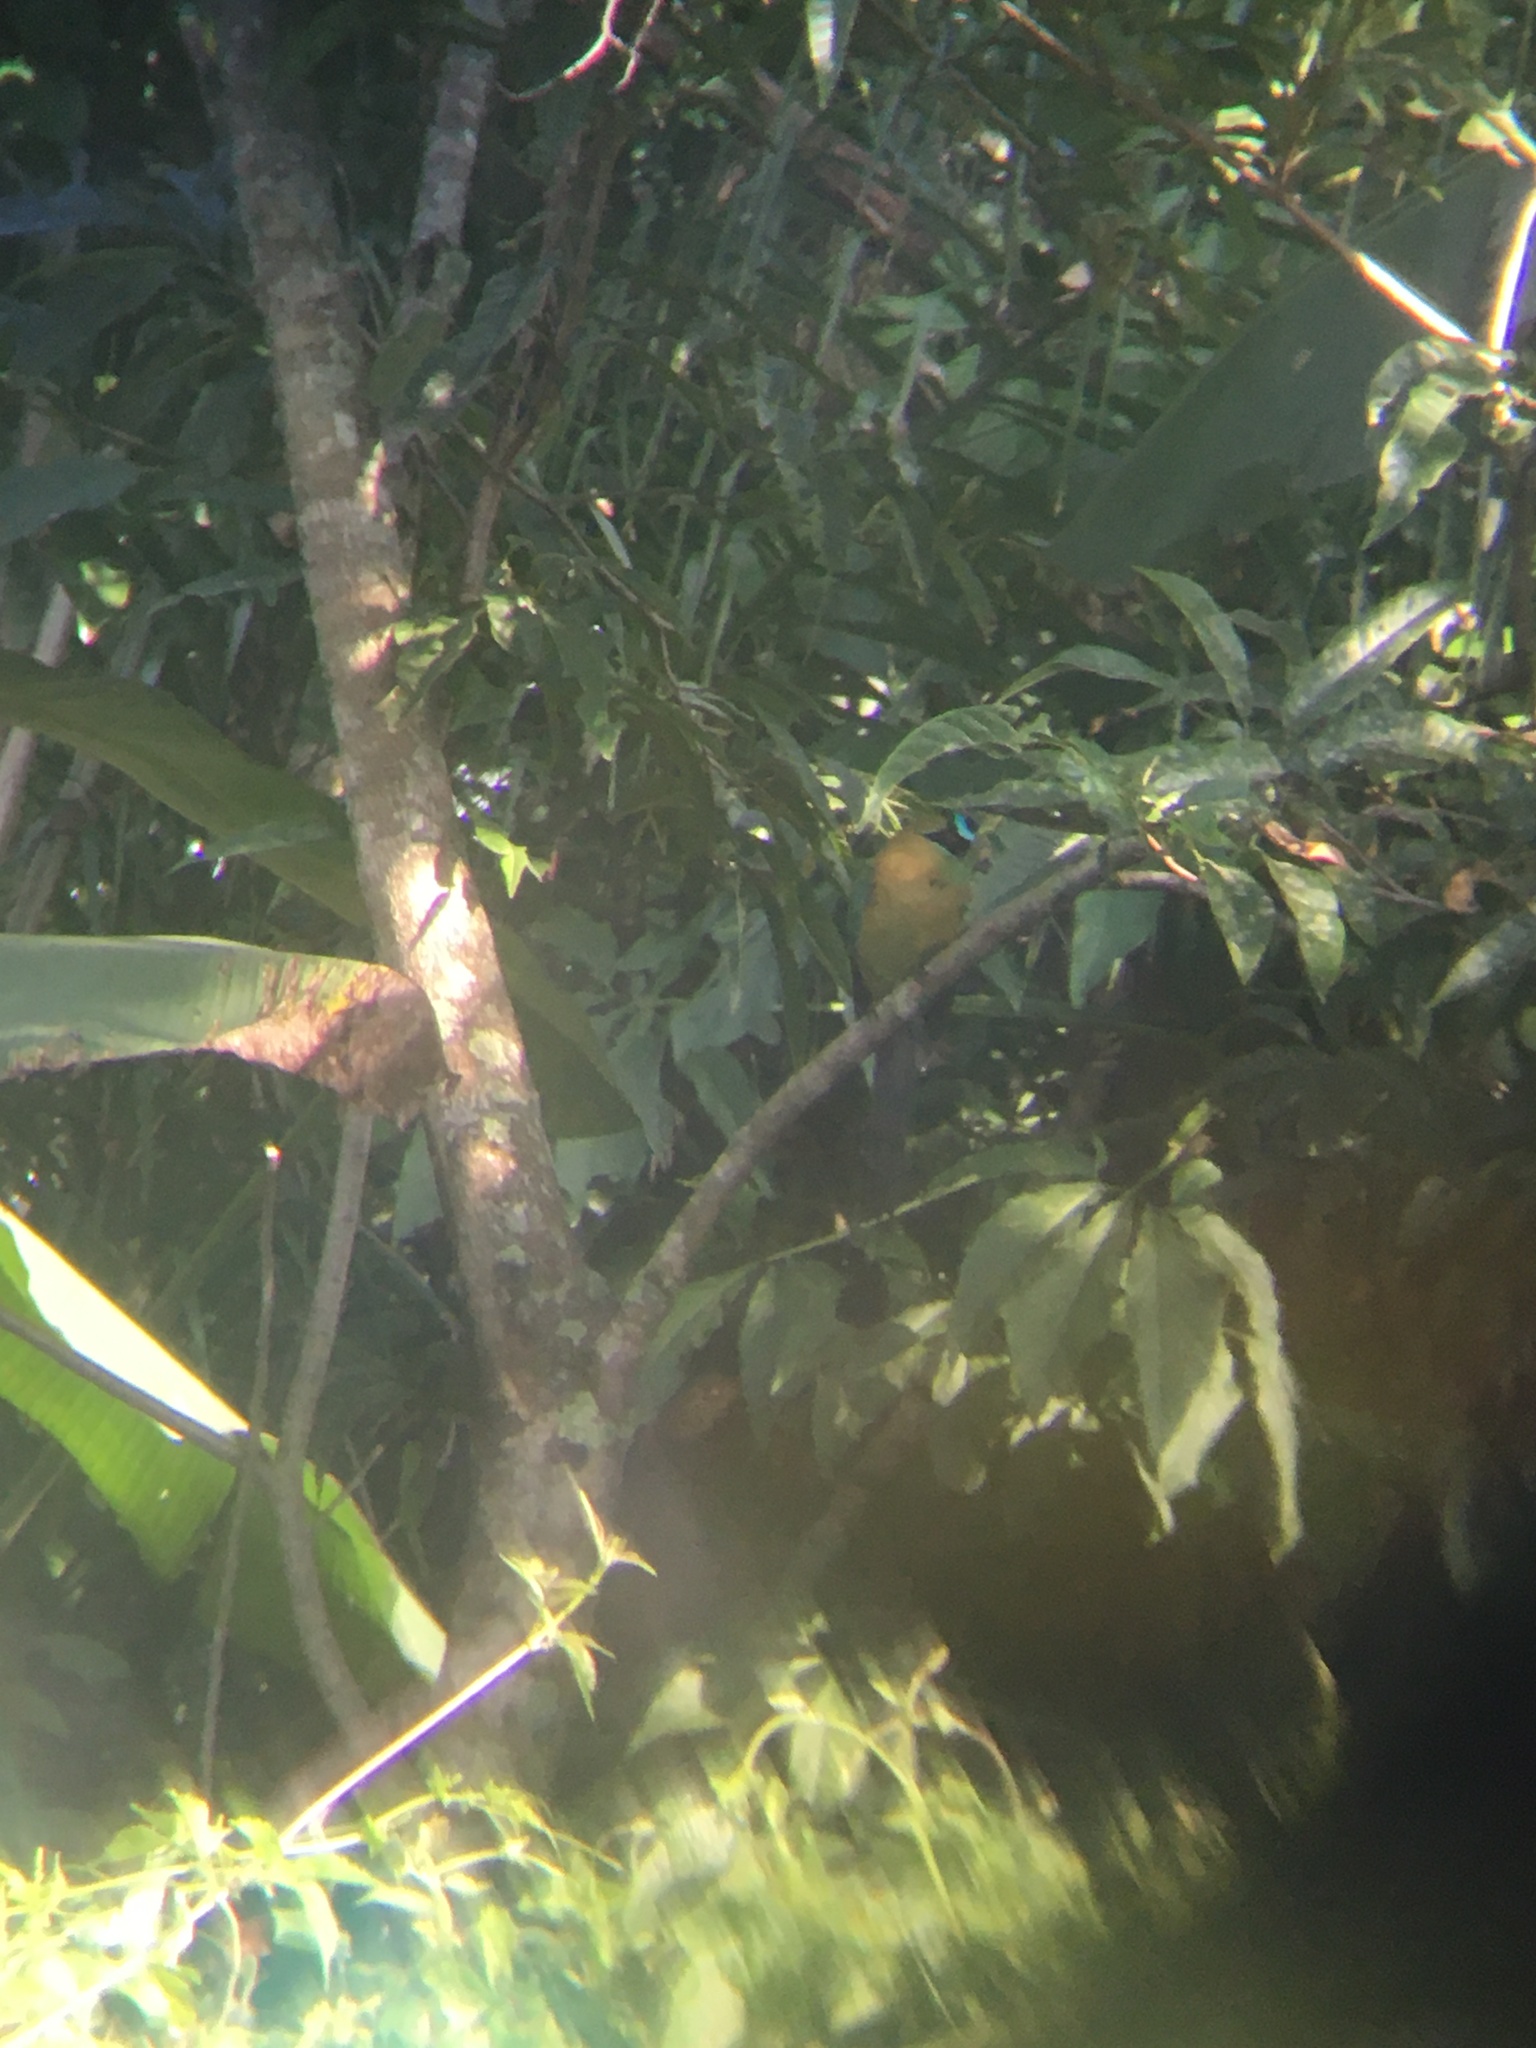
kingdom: Animalia
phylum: Chordata
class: Aves
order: Coraciiformes
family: Momotidae
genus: Momotus
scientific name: Momotus lessonii
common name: Lesson's motmot
